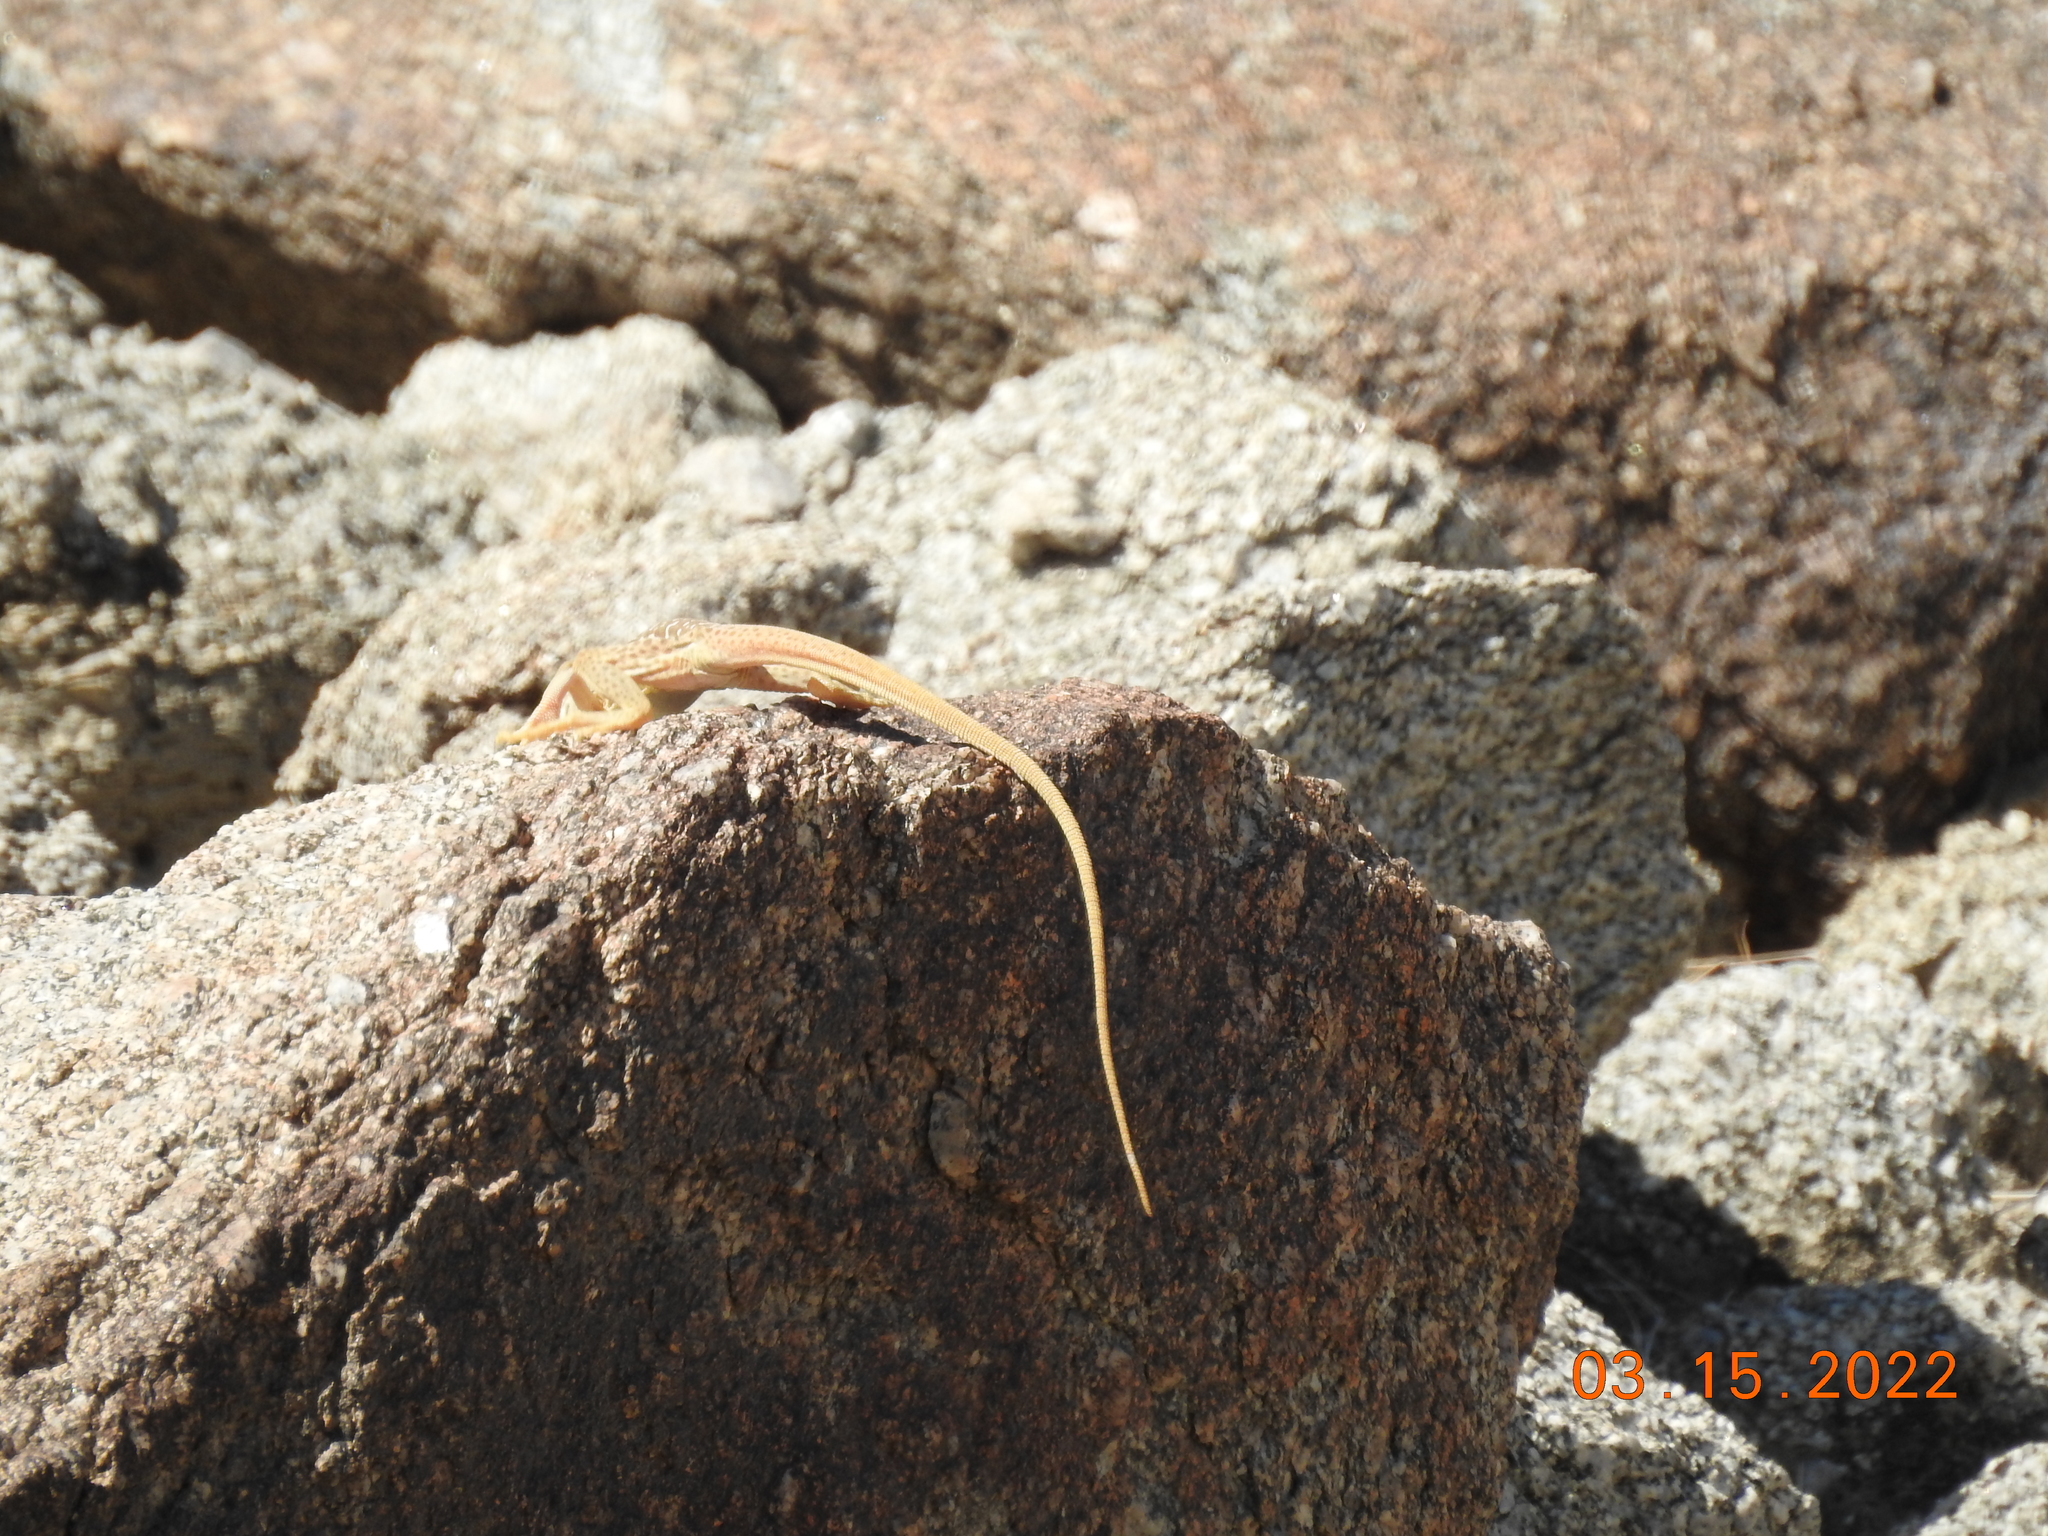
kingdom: Animalia
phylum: Chordata
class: Squamata
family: Crotaphytidae
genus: Crotaphytus
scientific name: Crotaphytus vestigium
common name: Baja black-collared lizard
